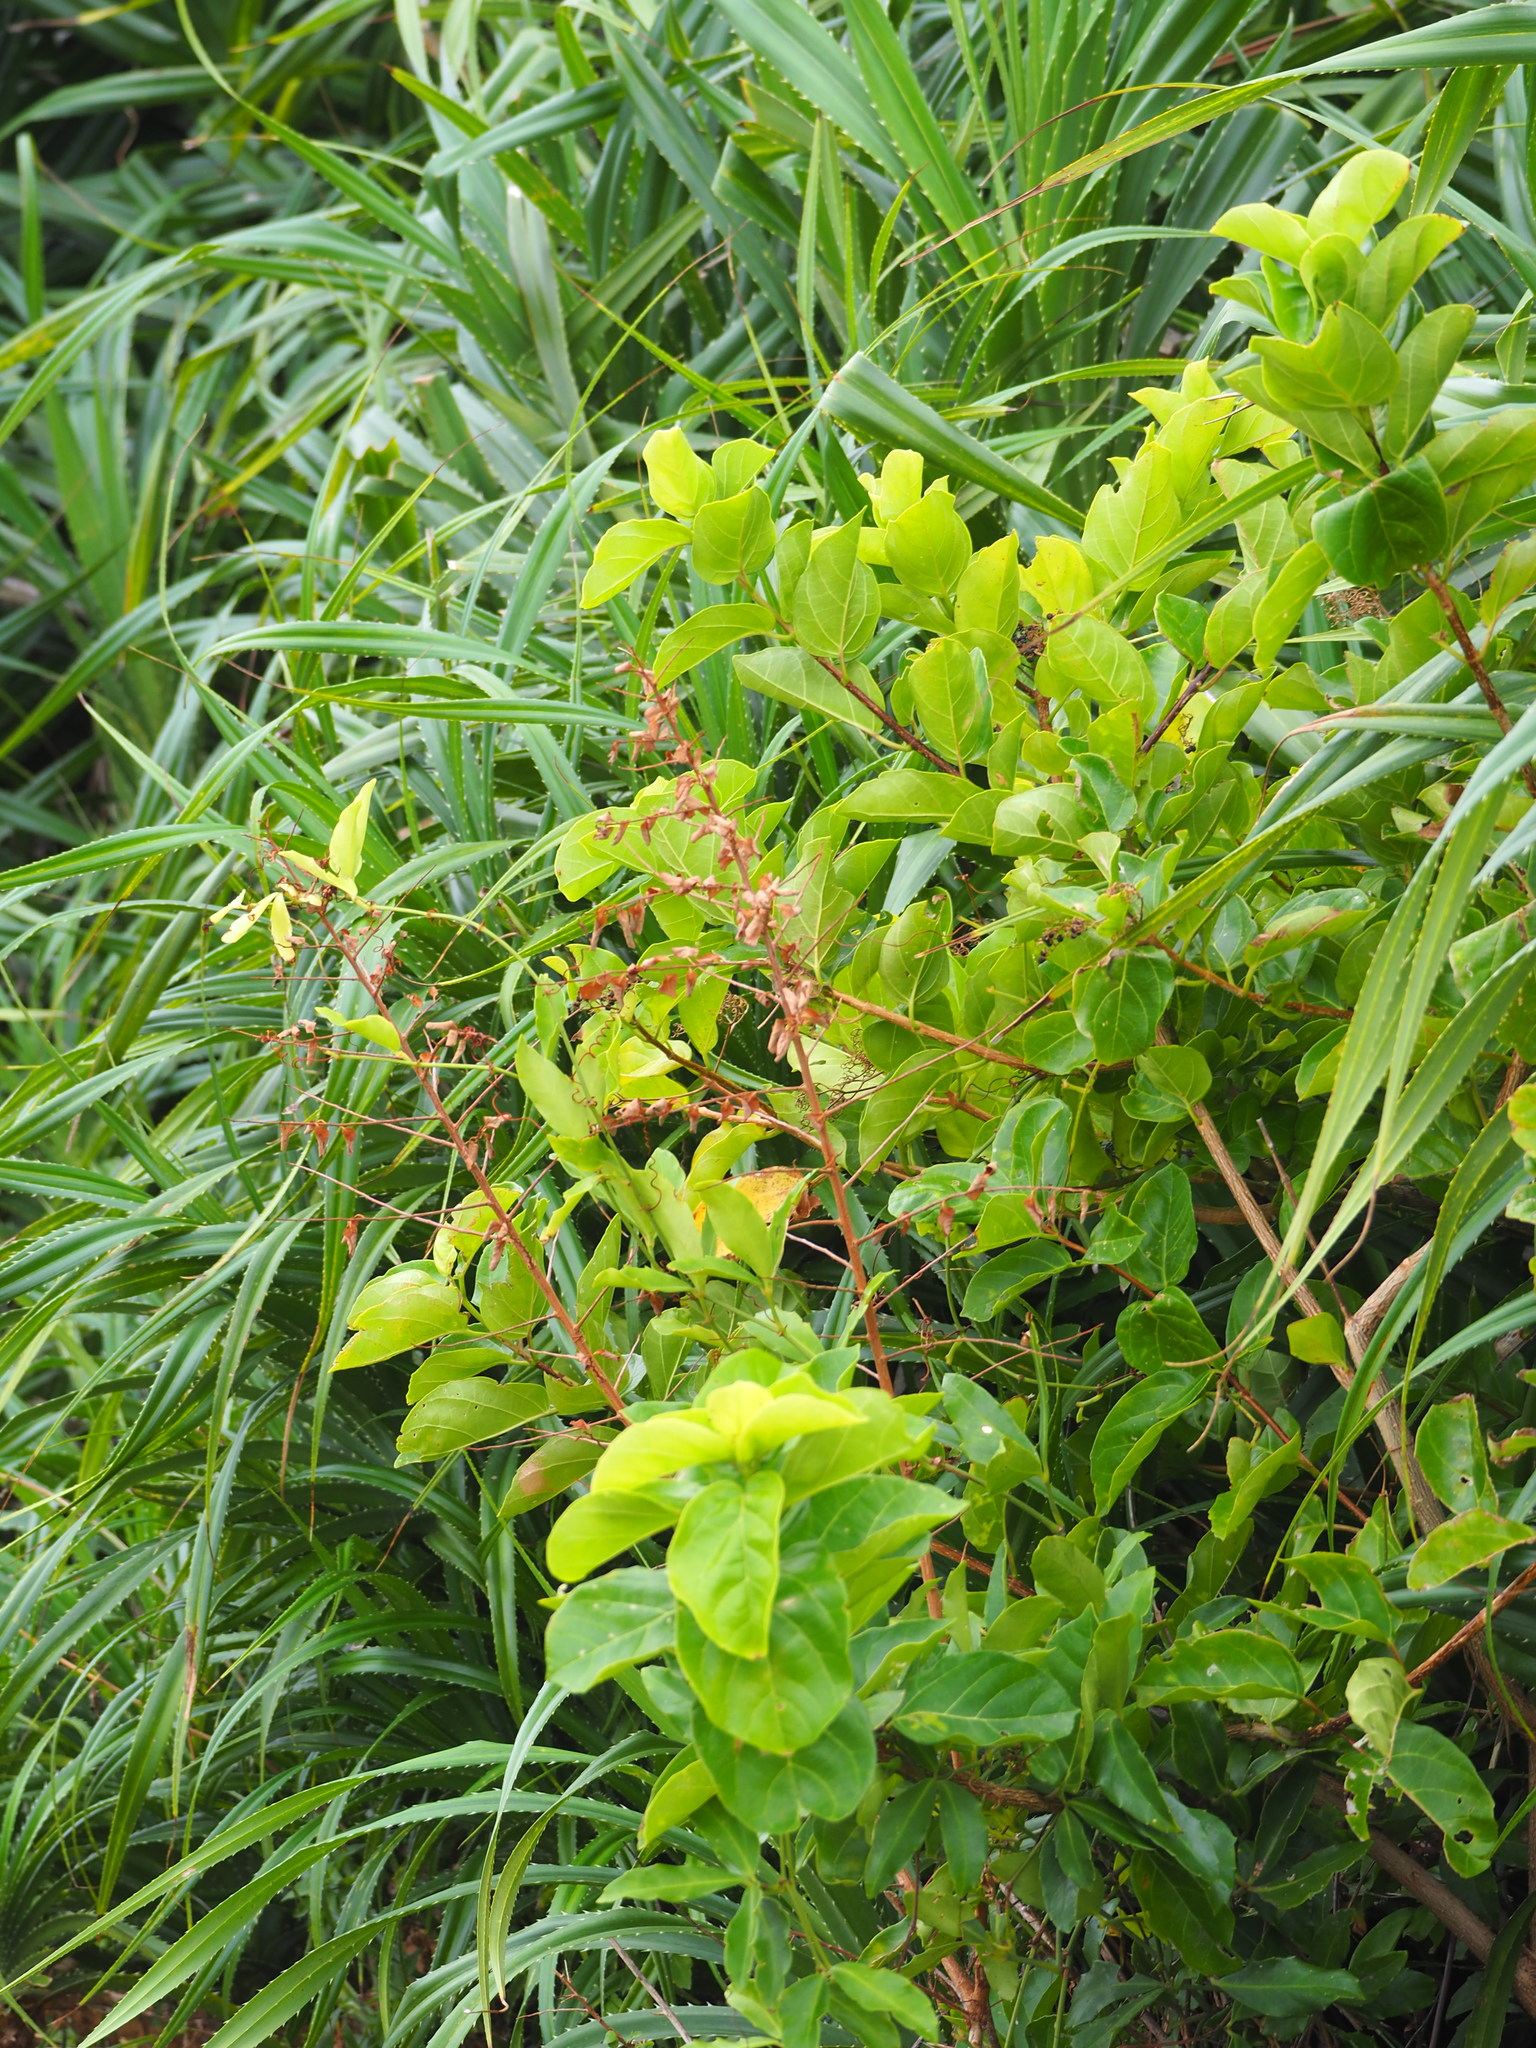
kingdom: Plantae
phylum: Tracheophyta
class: Magnoliopsida
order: Lamiales
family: Lamiaceae
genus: Premna
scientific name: Premna serratifolia
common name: Bastard guelder
